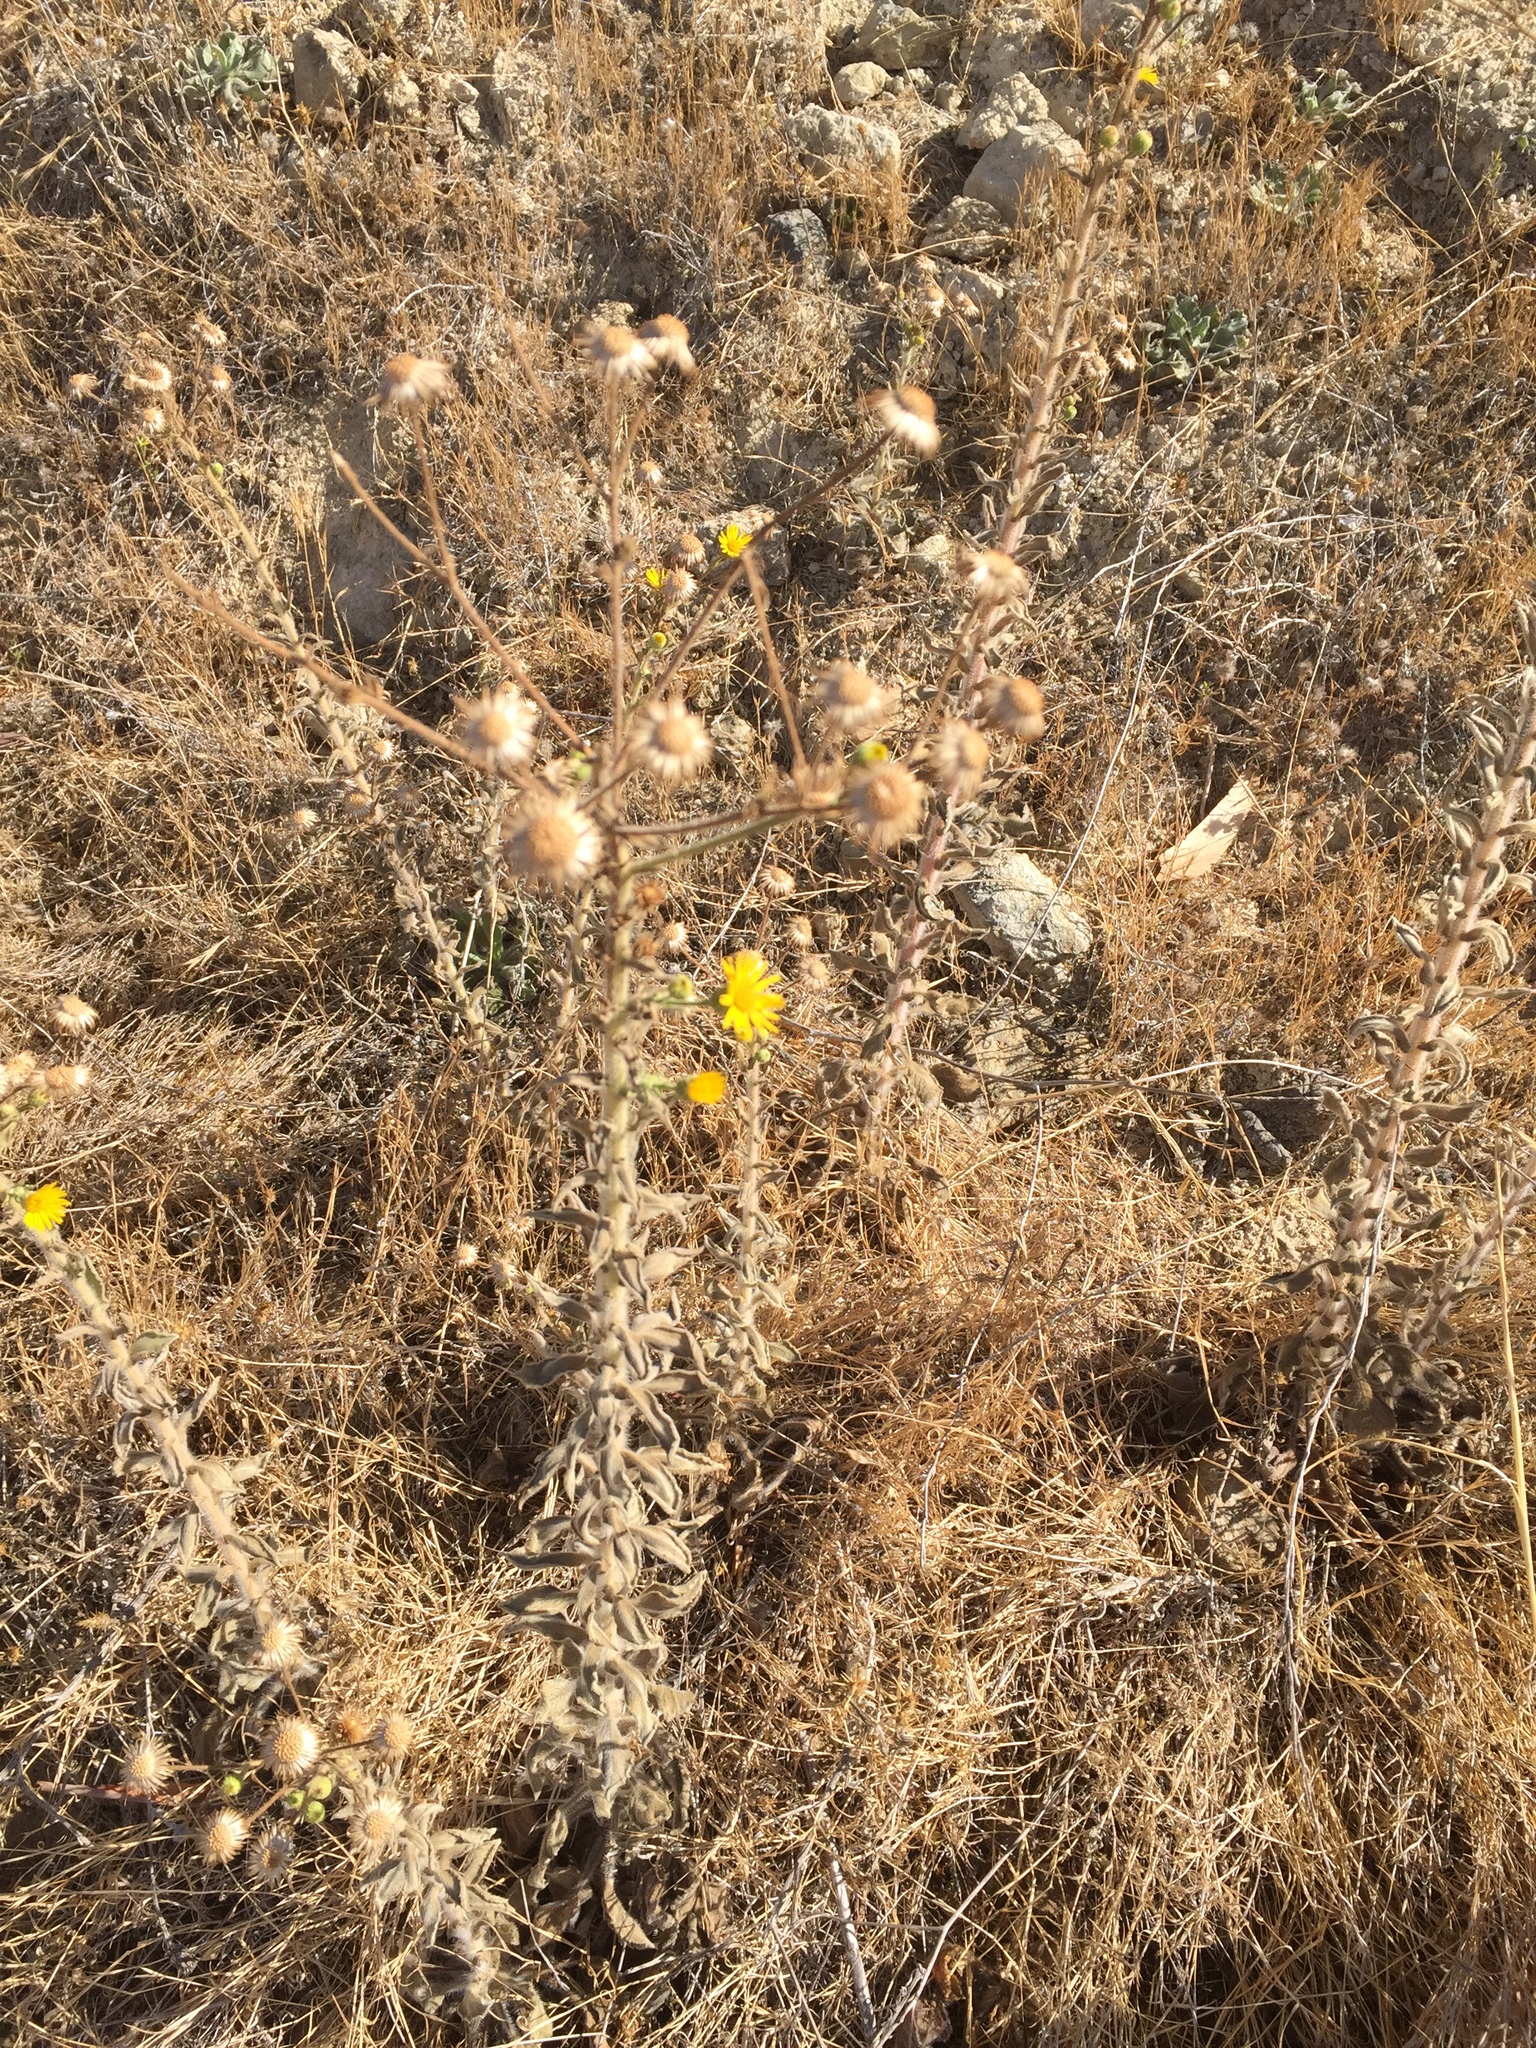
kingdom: Plantae
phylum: Tracheophyta
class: Magnoliopsida
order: Asterales
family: Asteraceae
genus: Heterotheca
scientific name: Heterotheca grandiflora
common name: Telegraphweed
